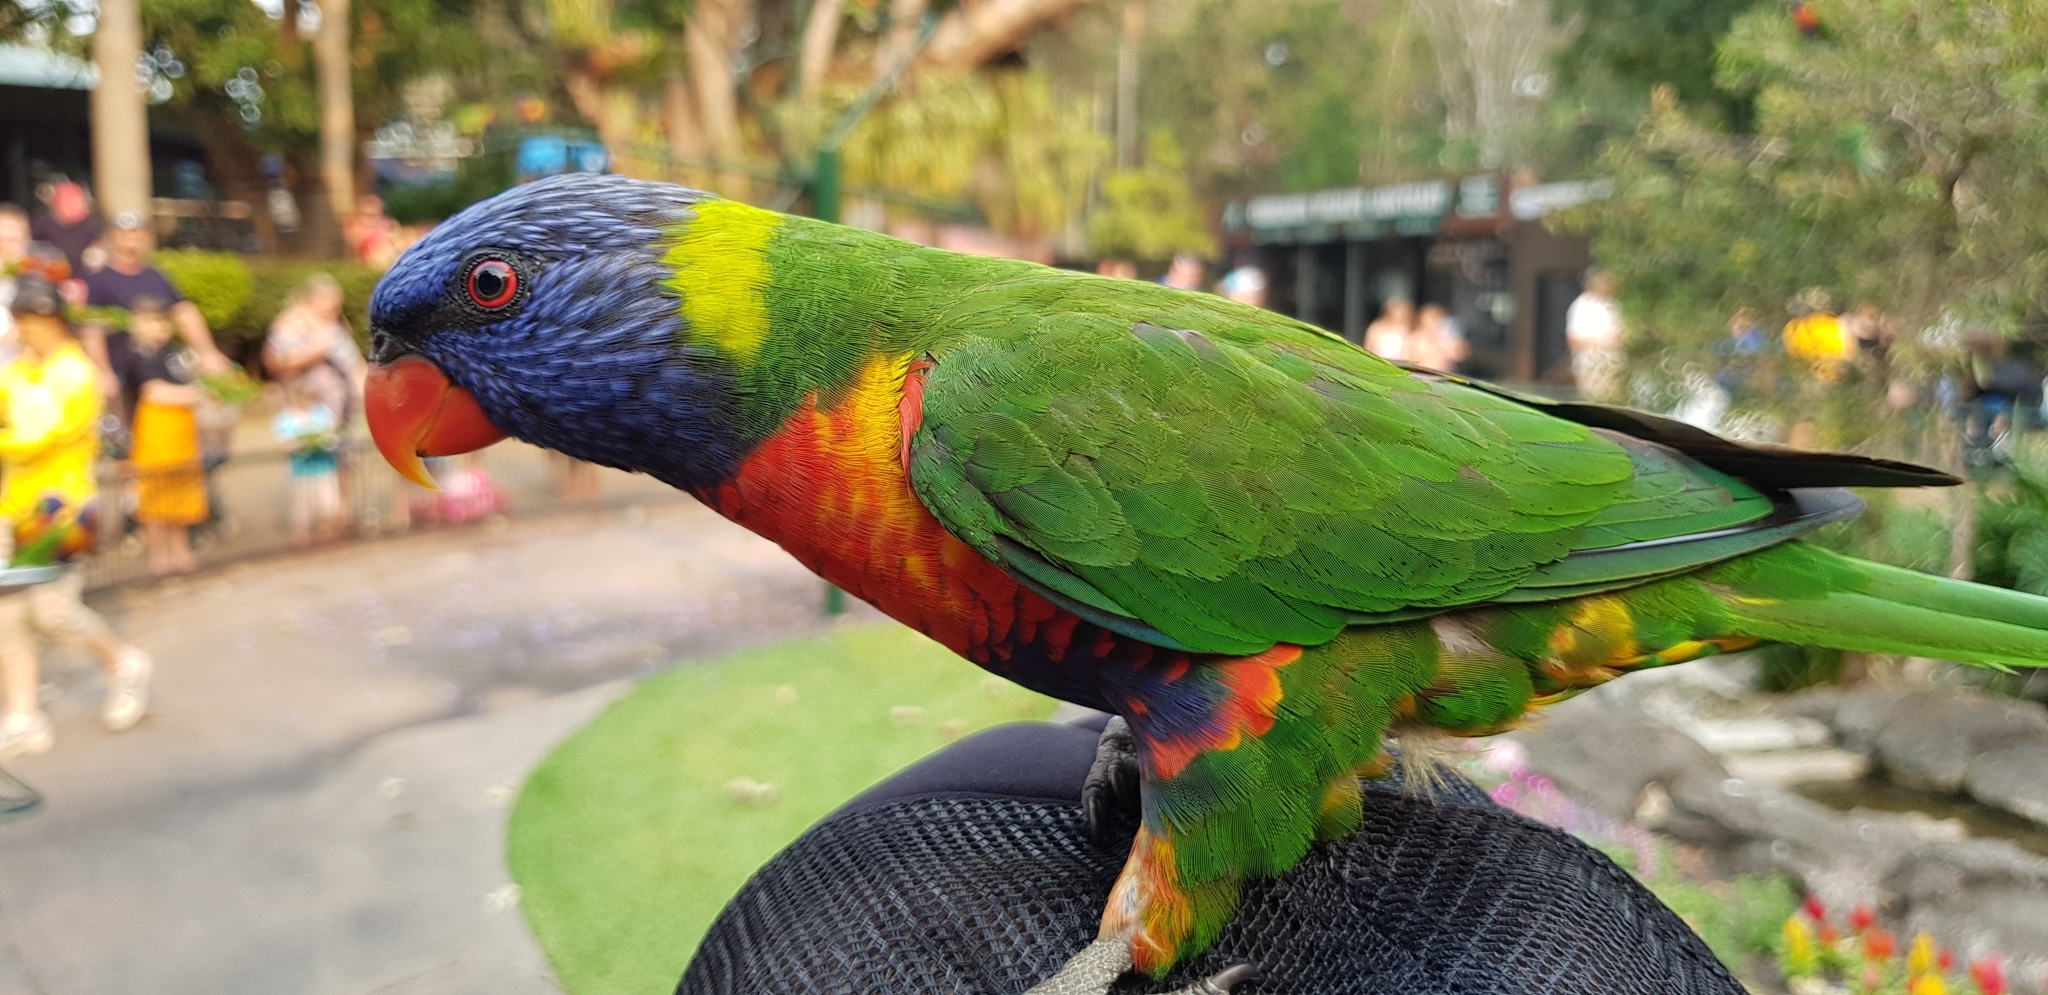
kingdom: Animalia
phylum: Chordata
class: Aves
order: Psittaciformes
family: Psittacidae
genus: Trichoglossus
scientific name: Trichoglossus haematodus
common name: Coconut lorikeet
